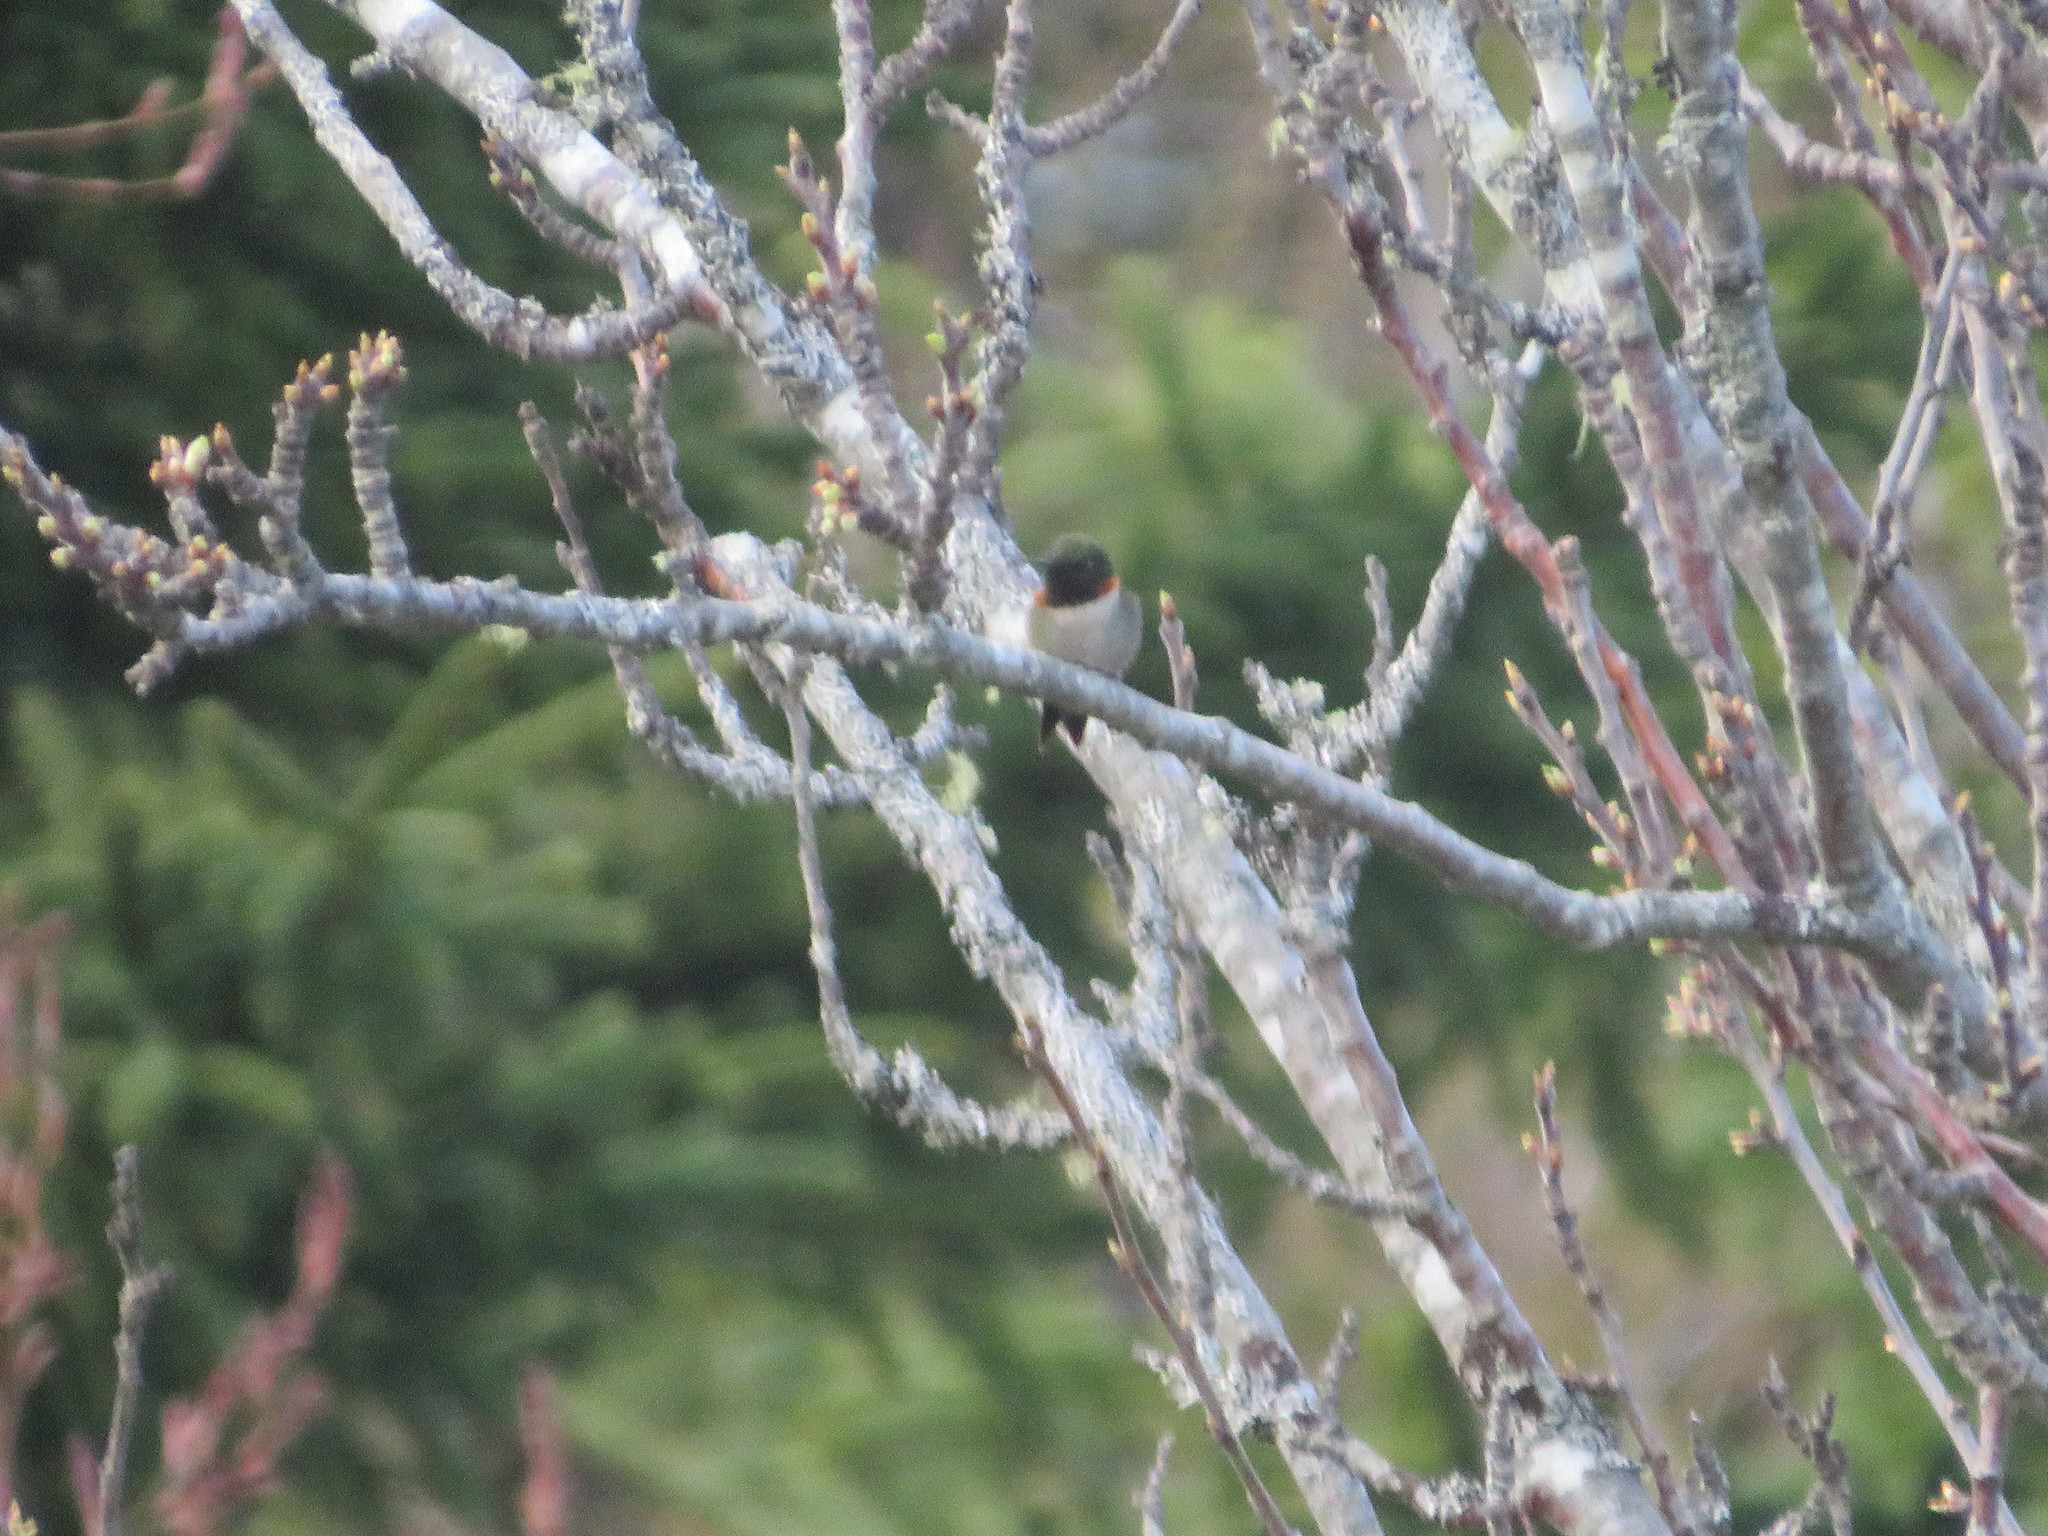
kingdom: Animalia
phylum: Chordata
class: Aves
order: Apodiformes
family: Trochilidae
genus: Archilochus
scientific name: Archilochus colubris
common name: Ruby-throated hummingbird
